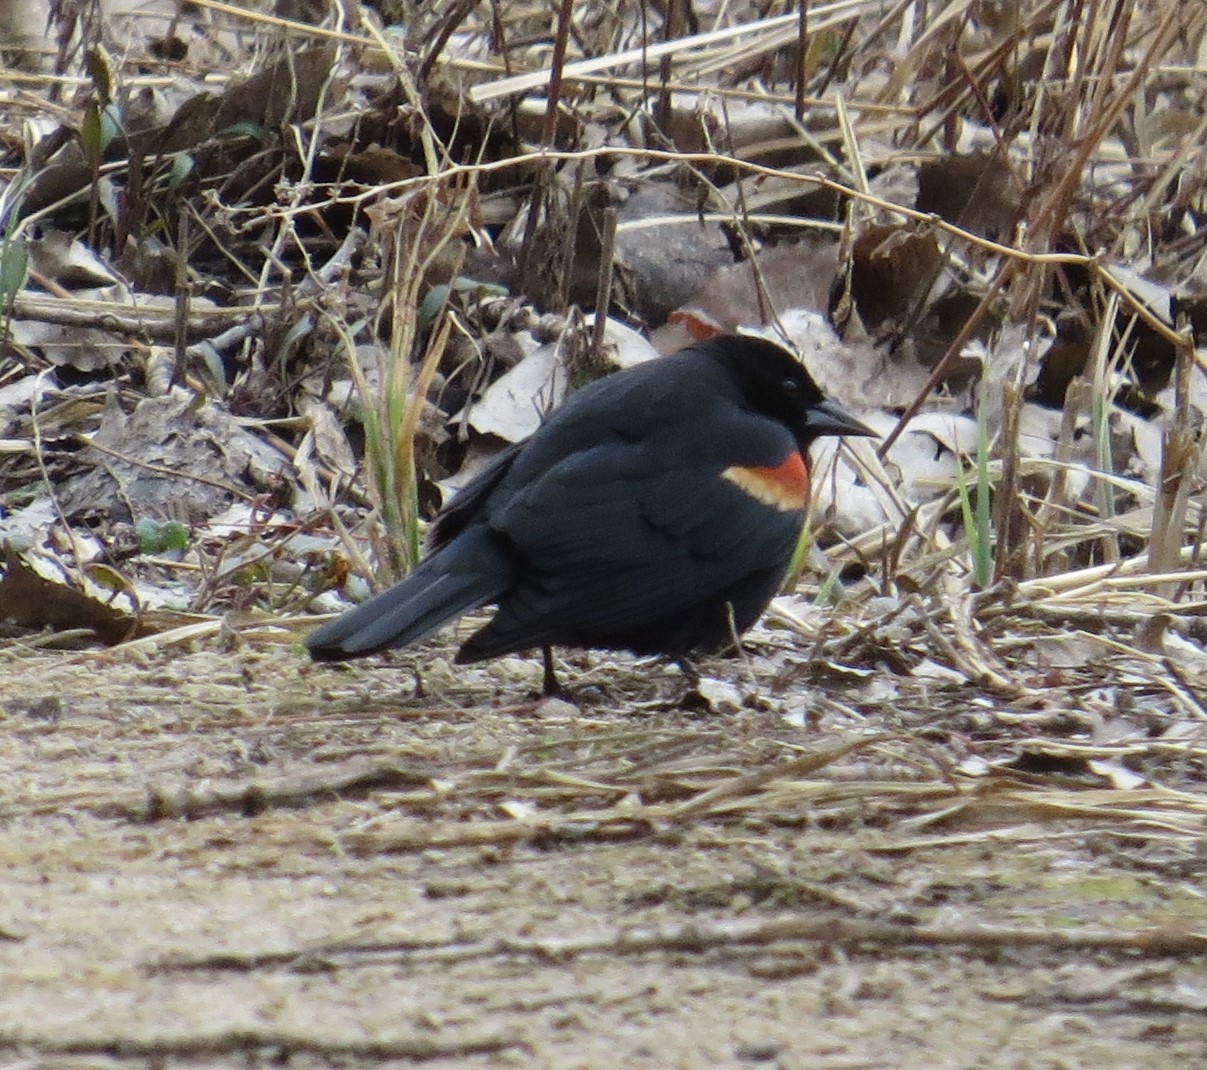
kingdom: Animalia
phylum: Chordata
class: Aves
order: Passeriformes
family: Icteridae
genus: Agelaius
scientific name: Agelaius phoeniceus
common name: Red-winged blackbird
